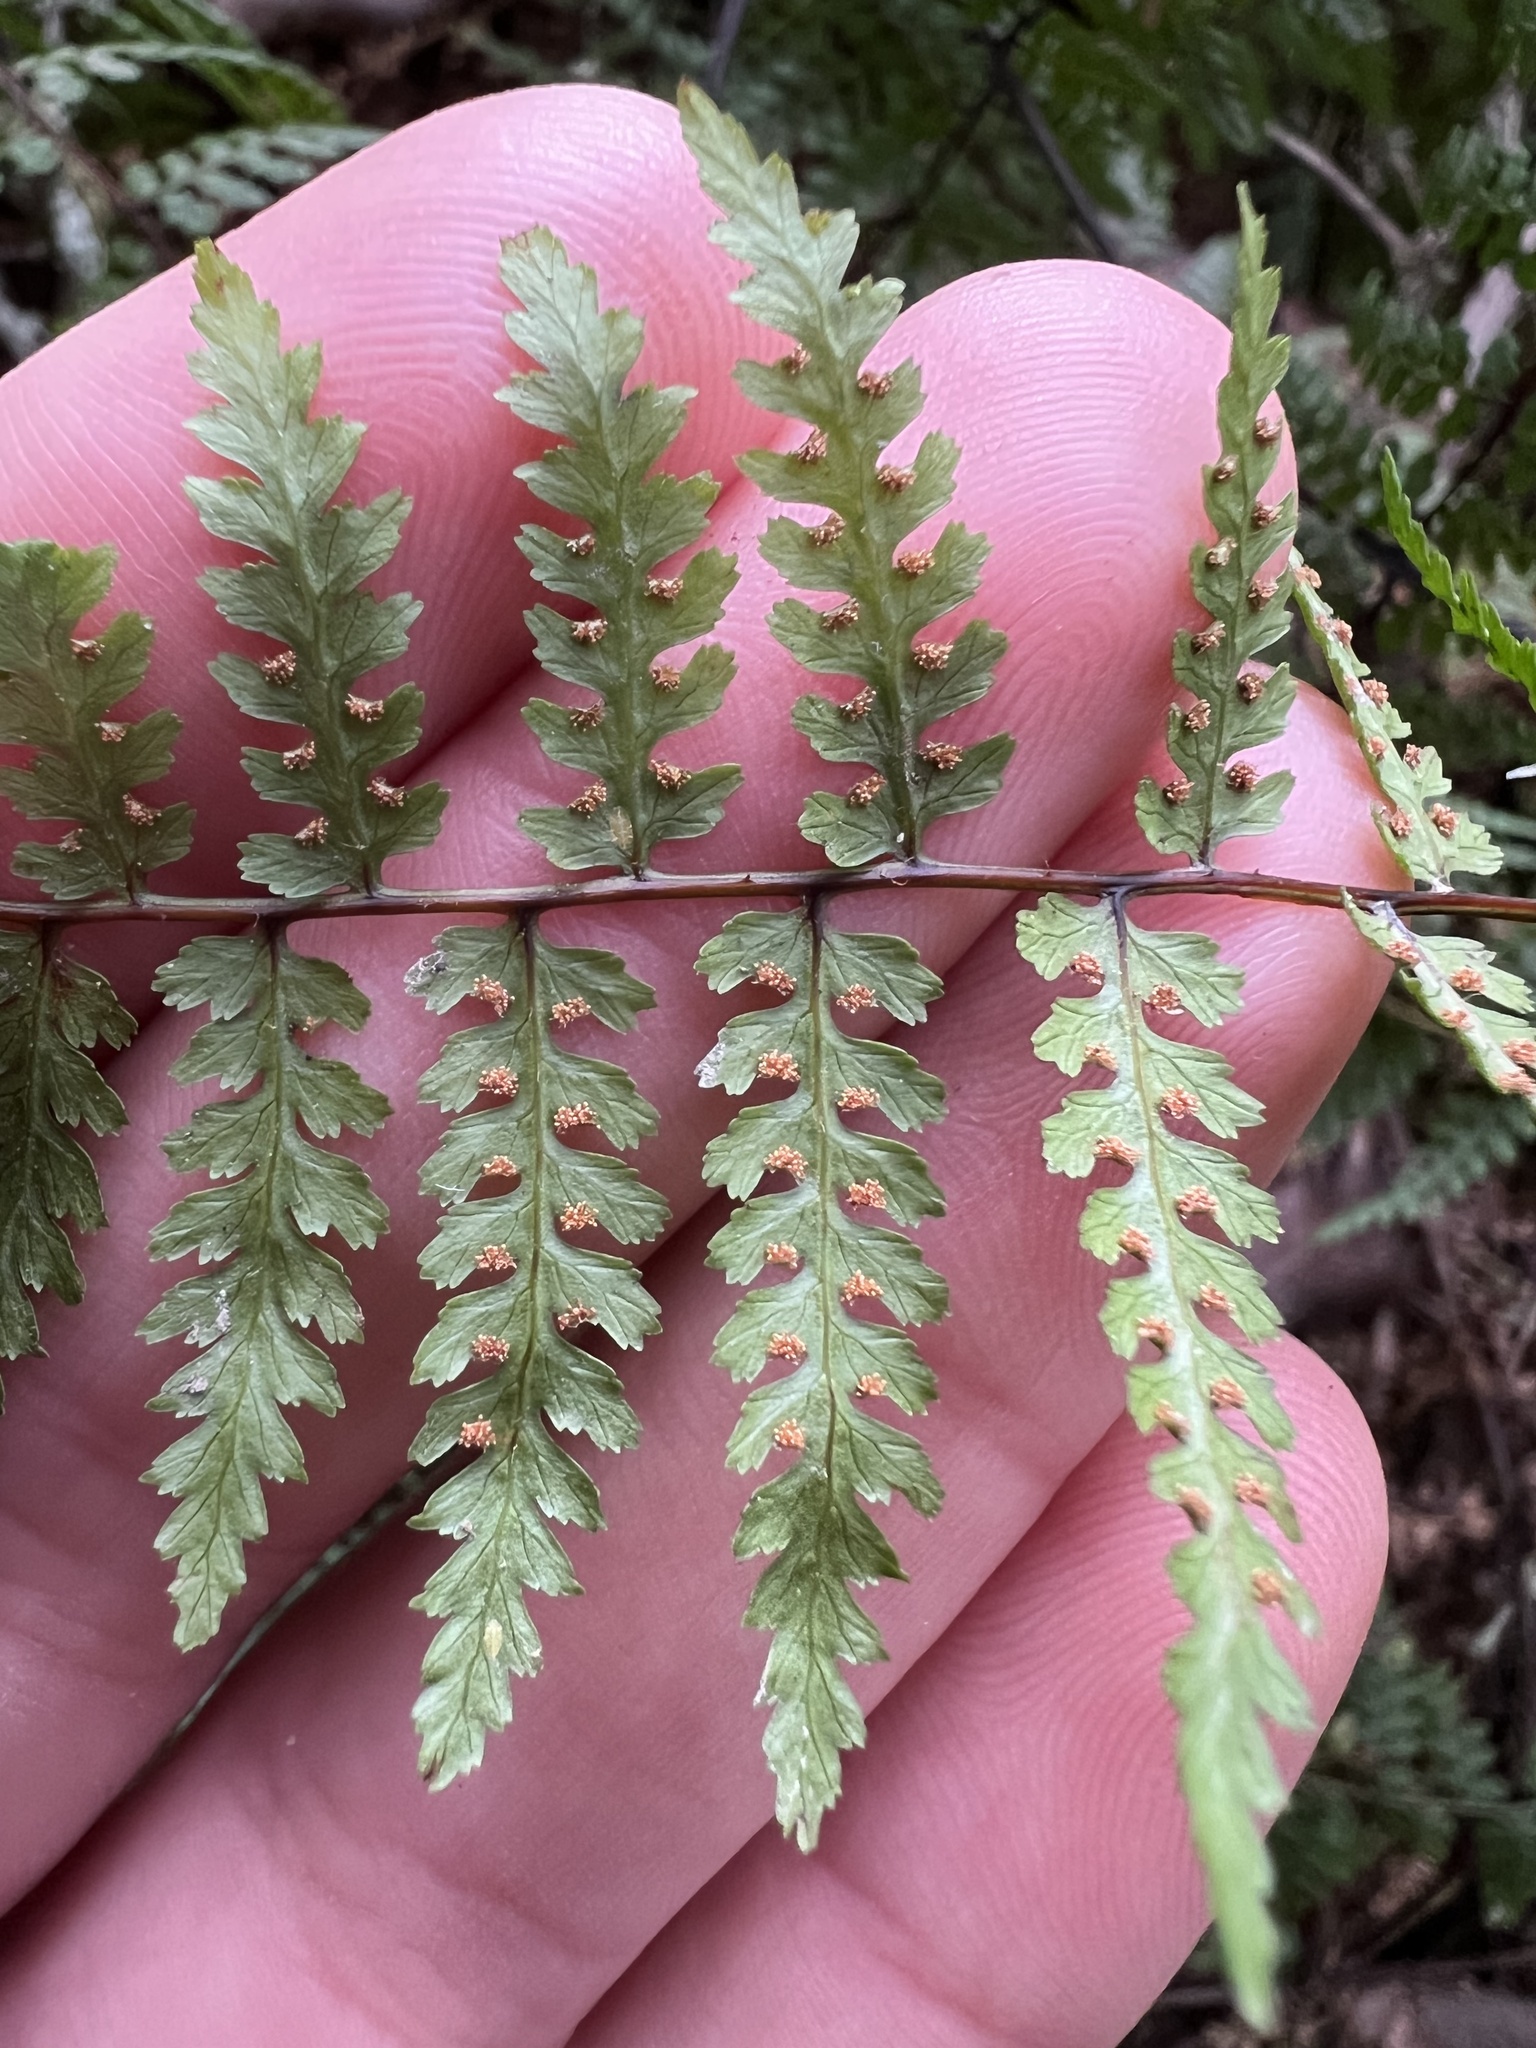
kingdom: Plantae
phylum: Tracheophyta
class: Polypodiopsida
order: Polypodiales
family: Dennstaedtiaceae
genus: Hiya
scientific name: Hiya distans
